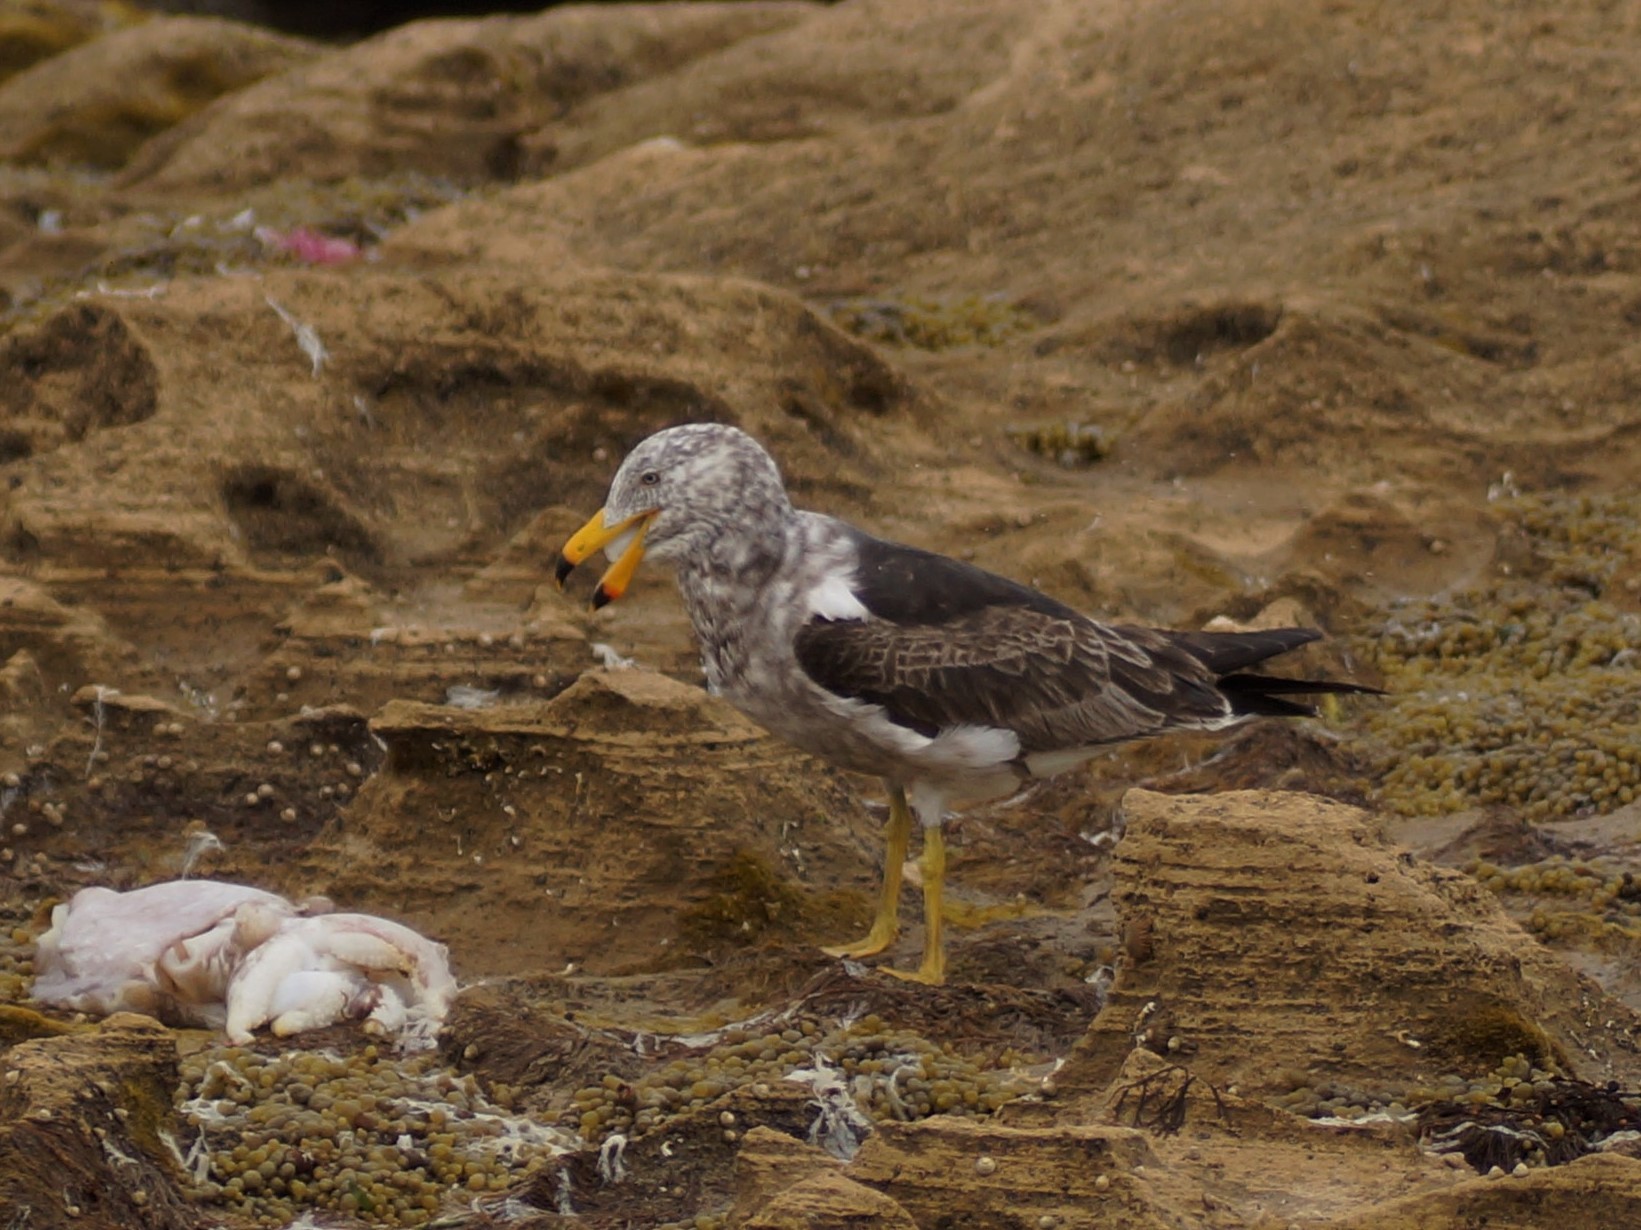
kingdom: Animalia
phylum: Chordata
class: Aves
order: Charadriiformes
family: Laridae
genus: Larus
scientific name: Larus pacificus
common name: Pacific gull
